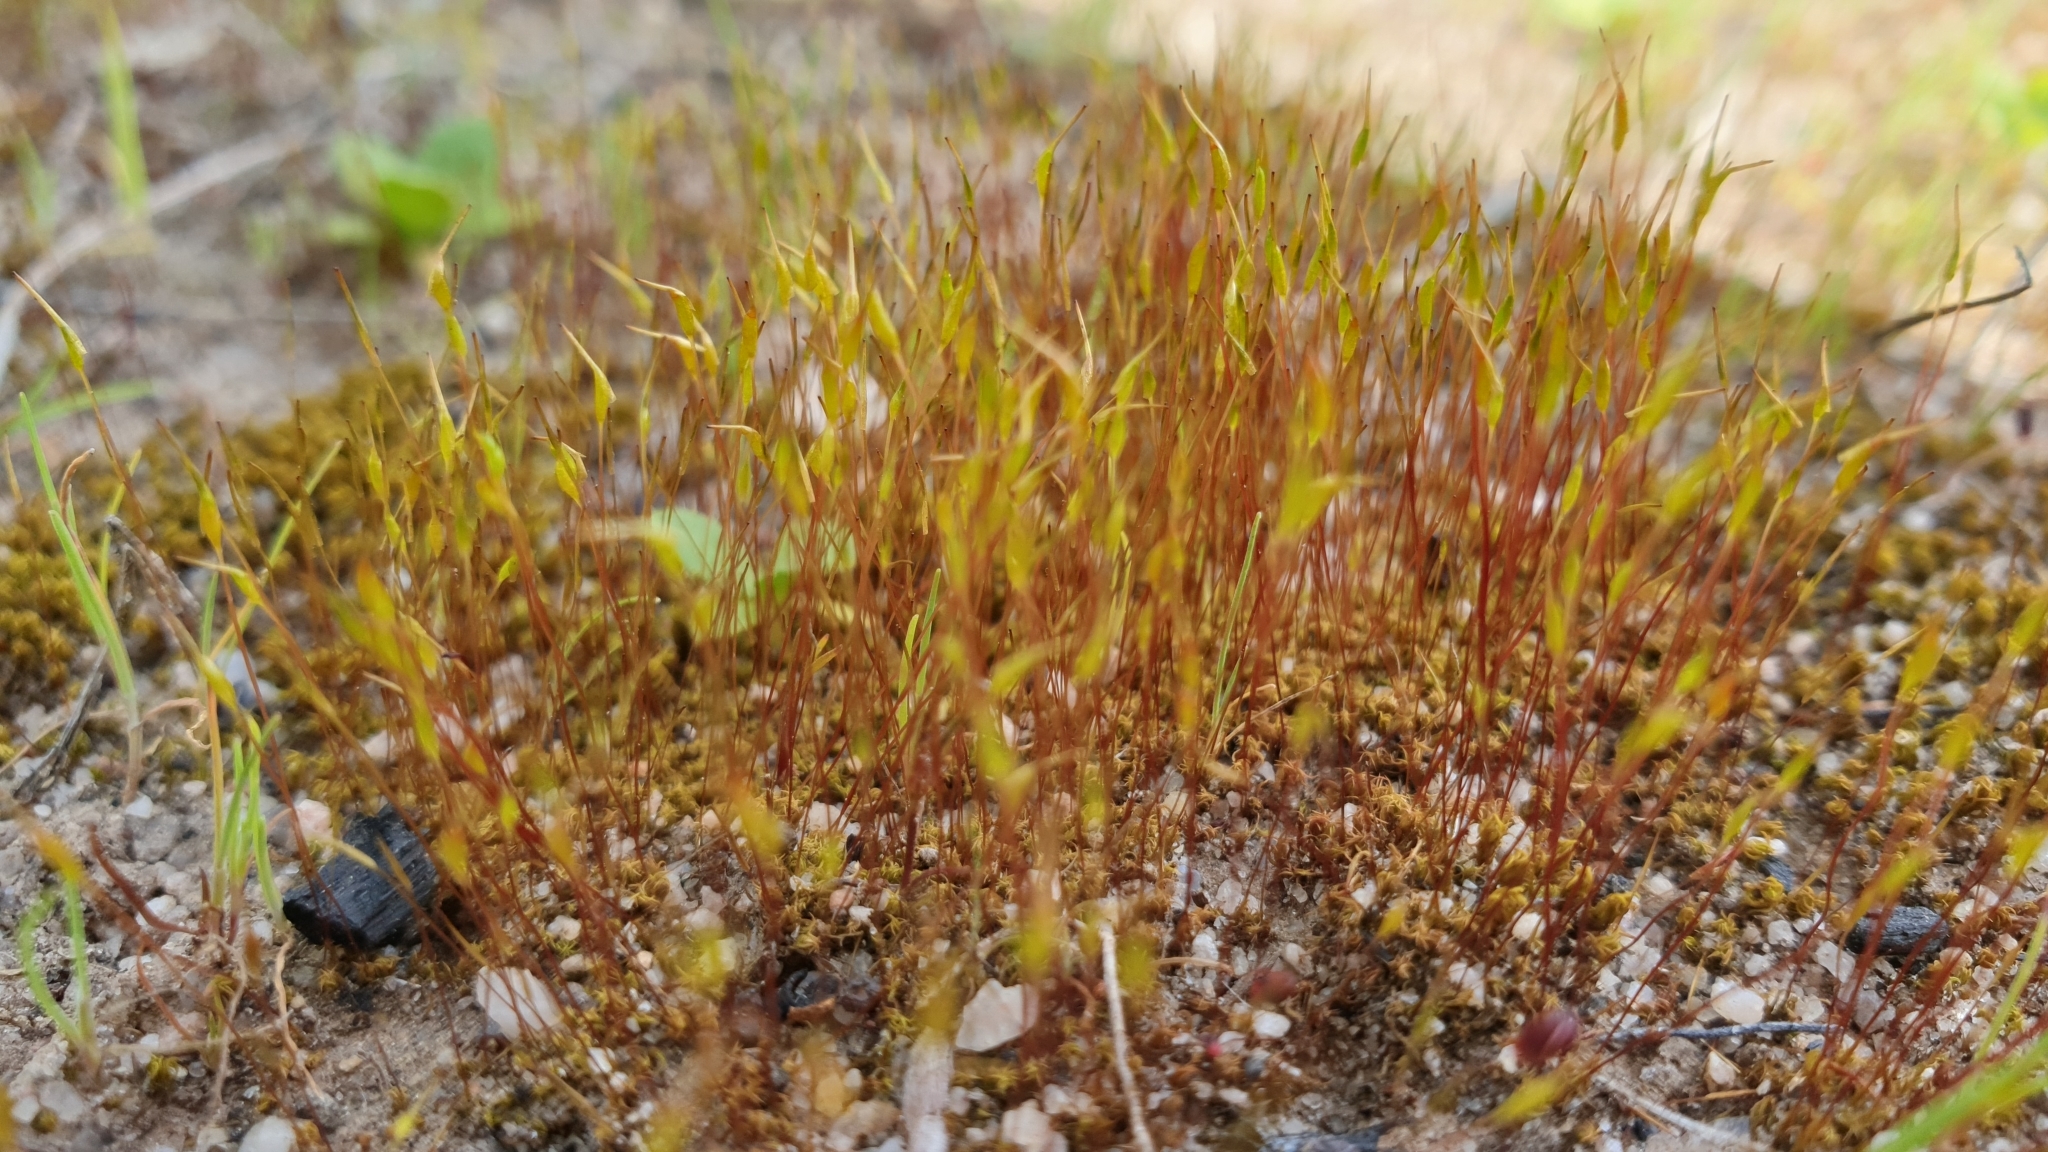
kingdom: Plantae
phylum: Bryophyta
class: Bryopsida
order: Dicranales
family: Ditrichaceae
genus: Ceratodon
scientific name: Ceratodon purpureus
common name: Redshank
